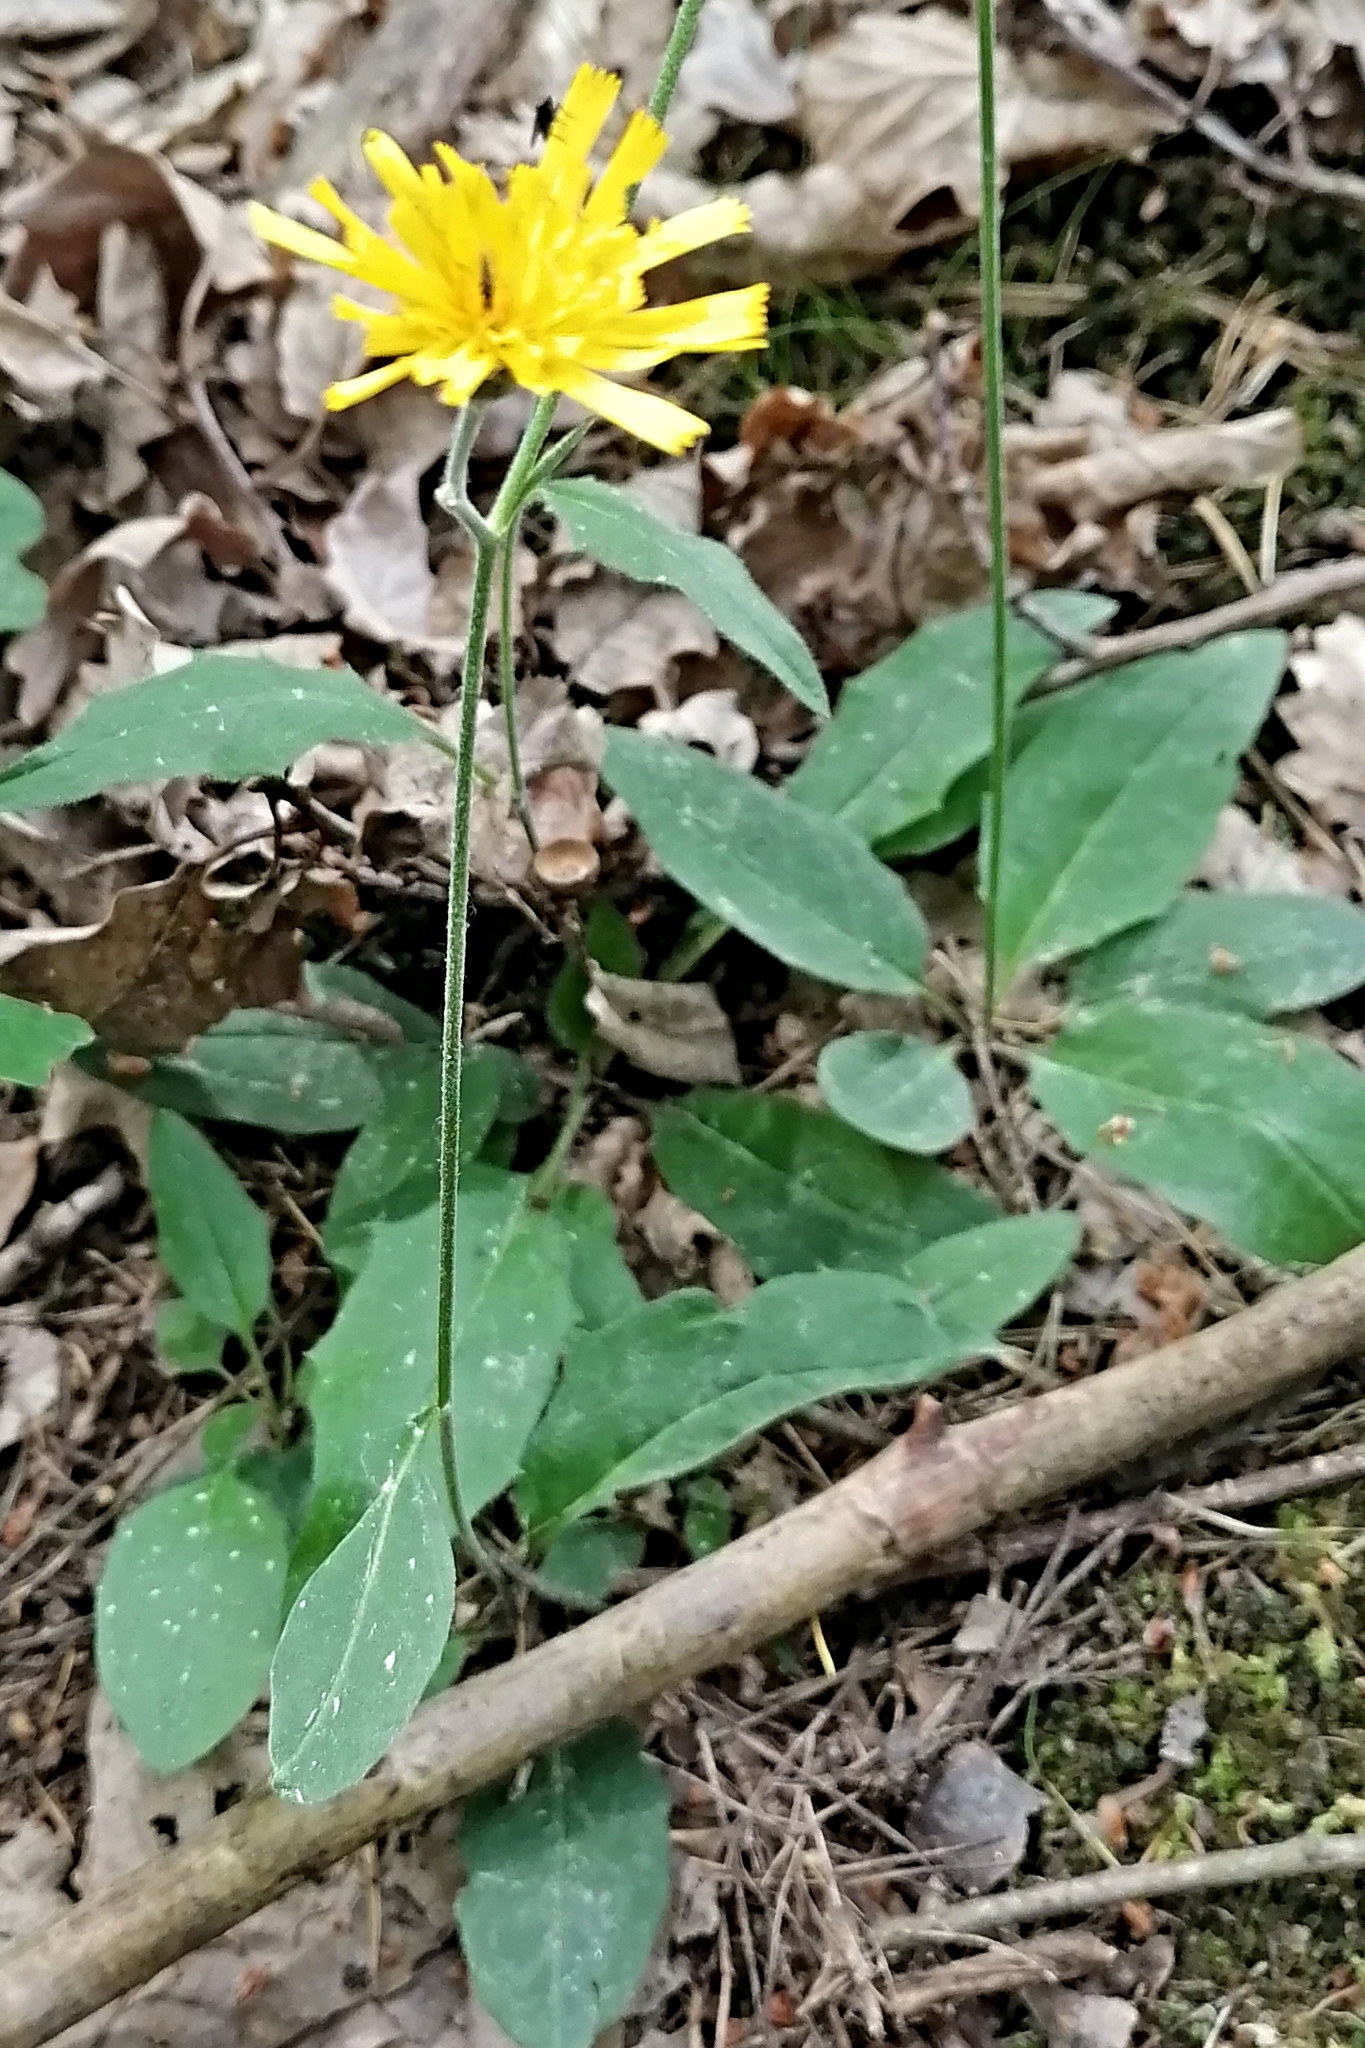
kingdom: Plantae
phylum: Tracheophyta
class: Magnoliopsida
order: Asterales
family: Asteraceae
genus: Hieracium
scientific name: Hieracium murorum
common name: Wall hawkweed
